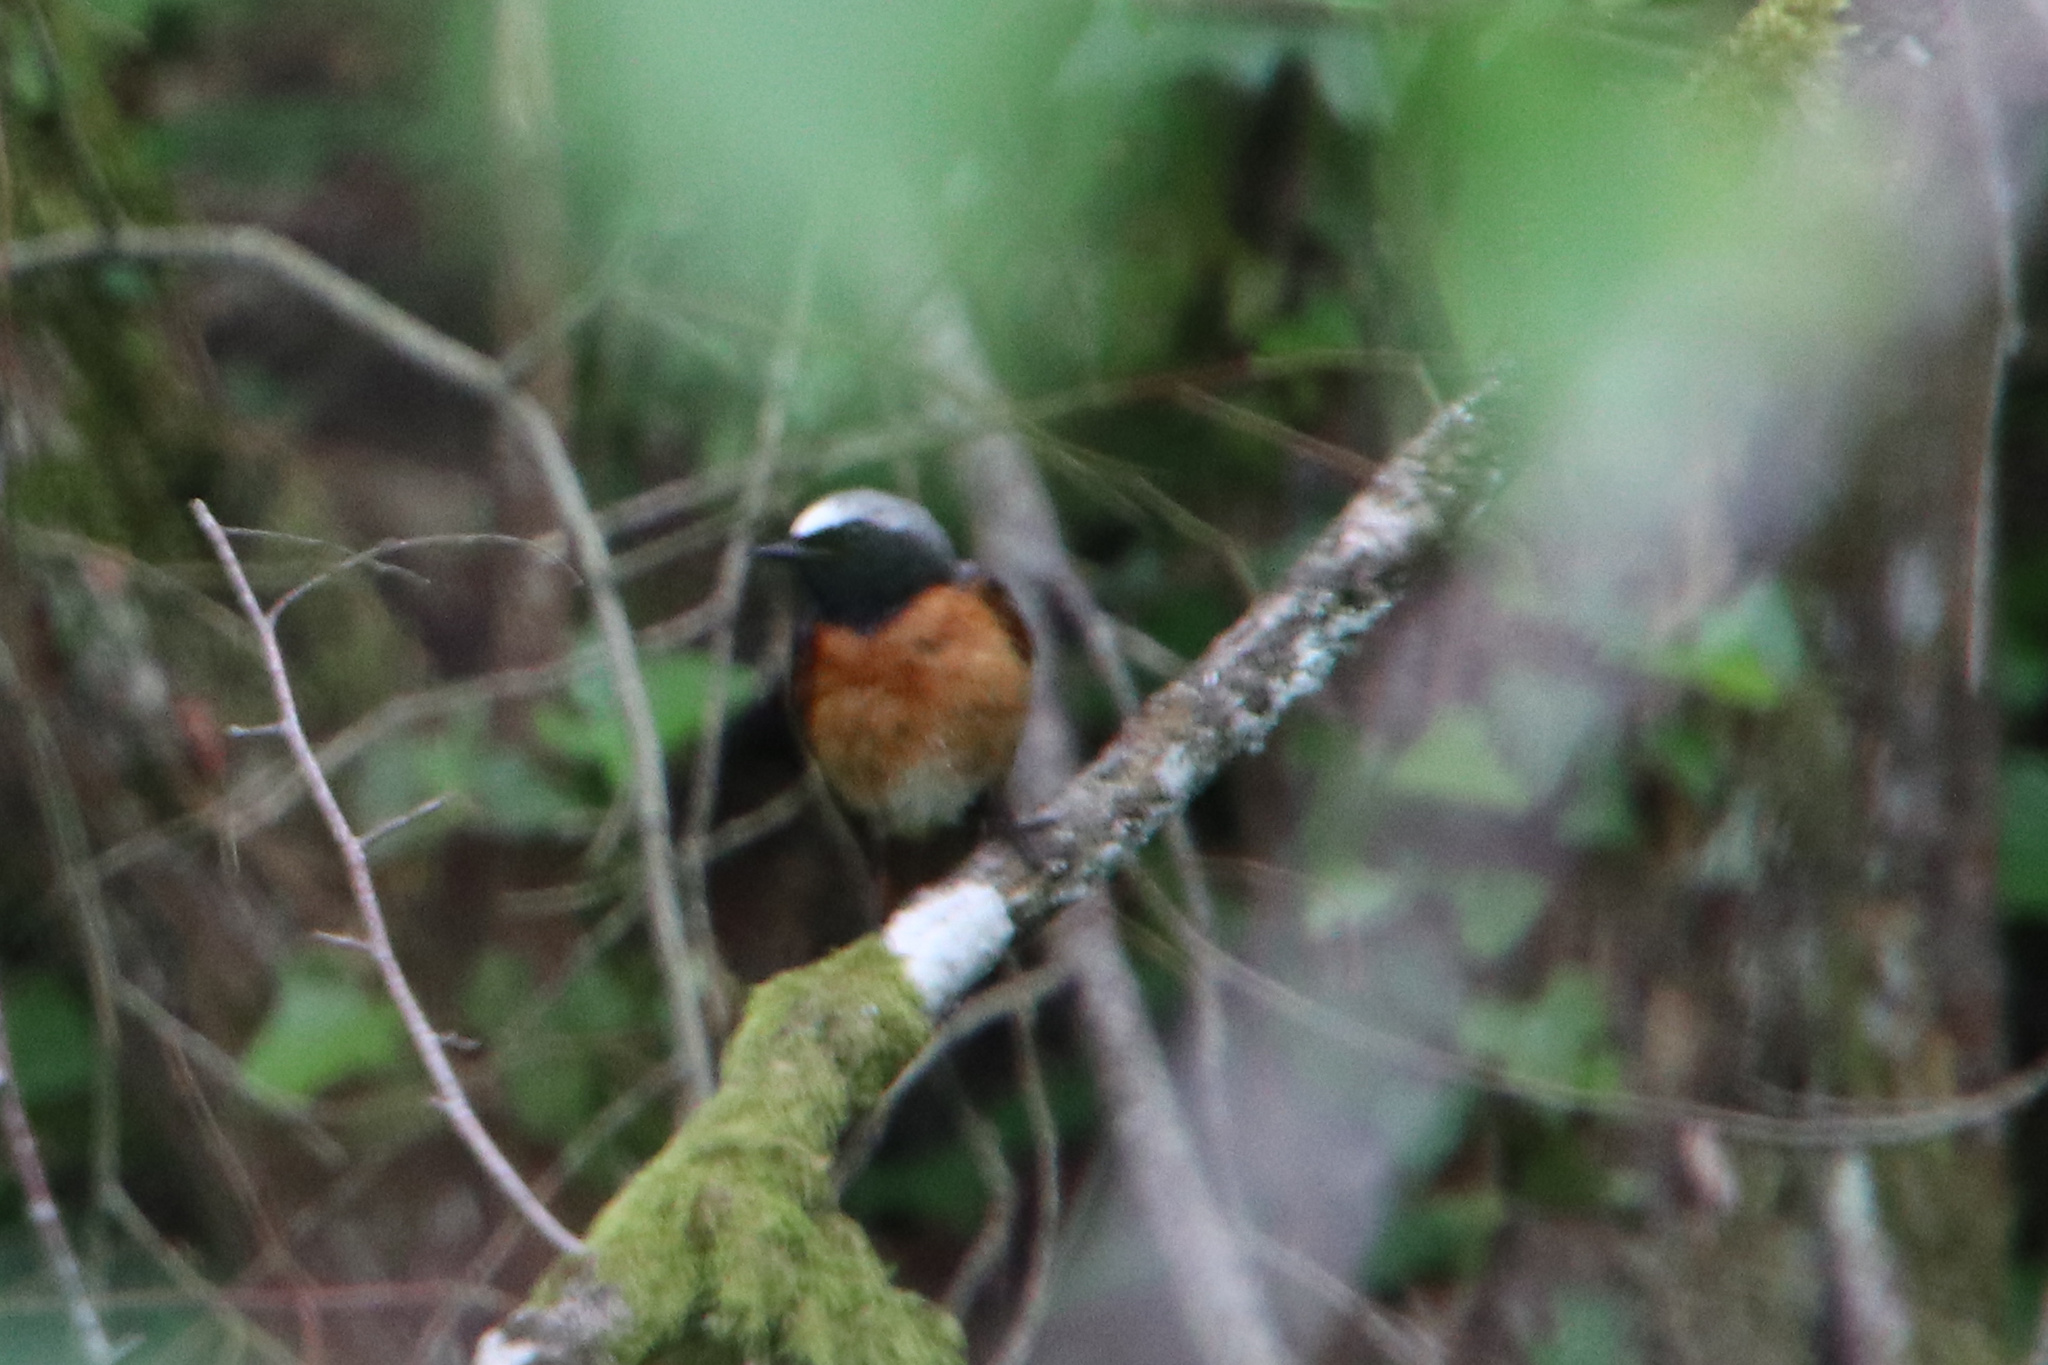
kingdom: Animalia
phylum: Chordata
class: Aves
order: Passeriformes
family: Muscicapidae
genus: Phoenicurus
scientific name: Phoenicurus phoenicurus
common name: Common redstart
